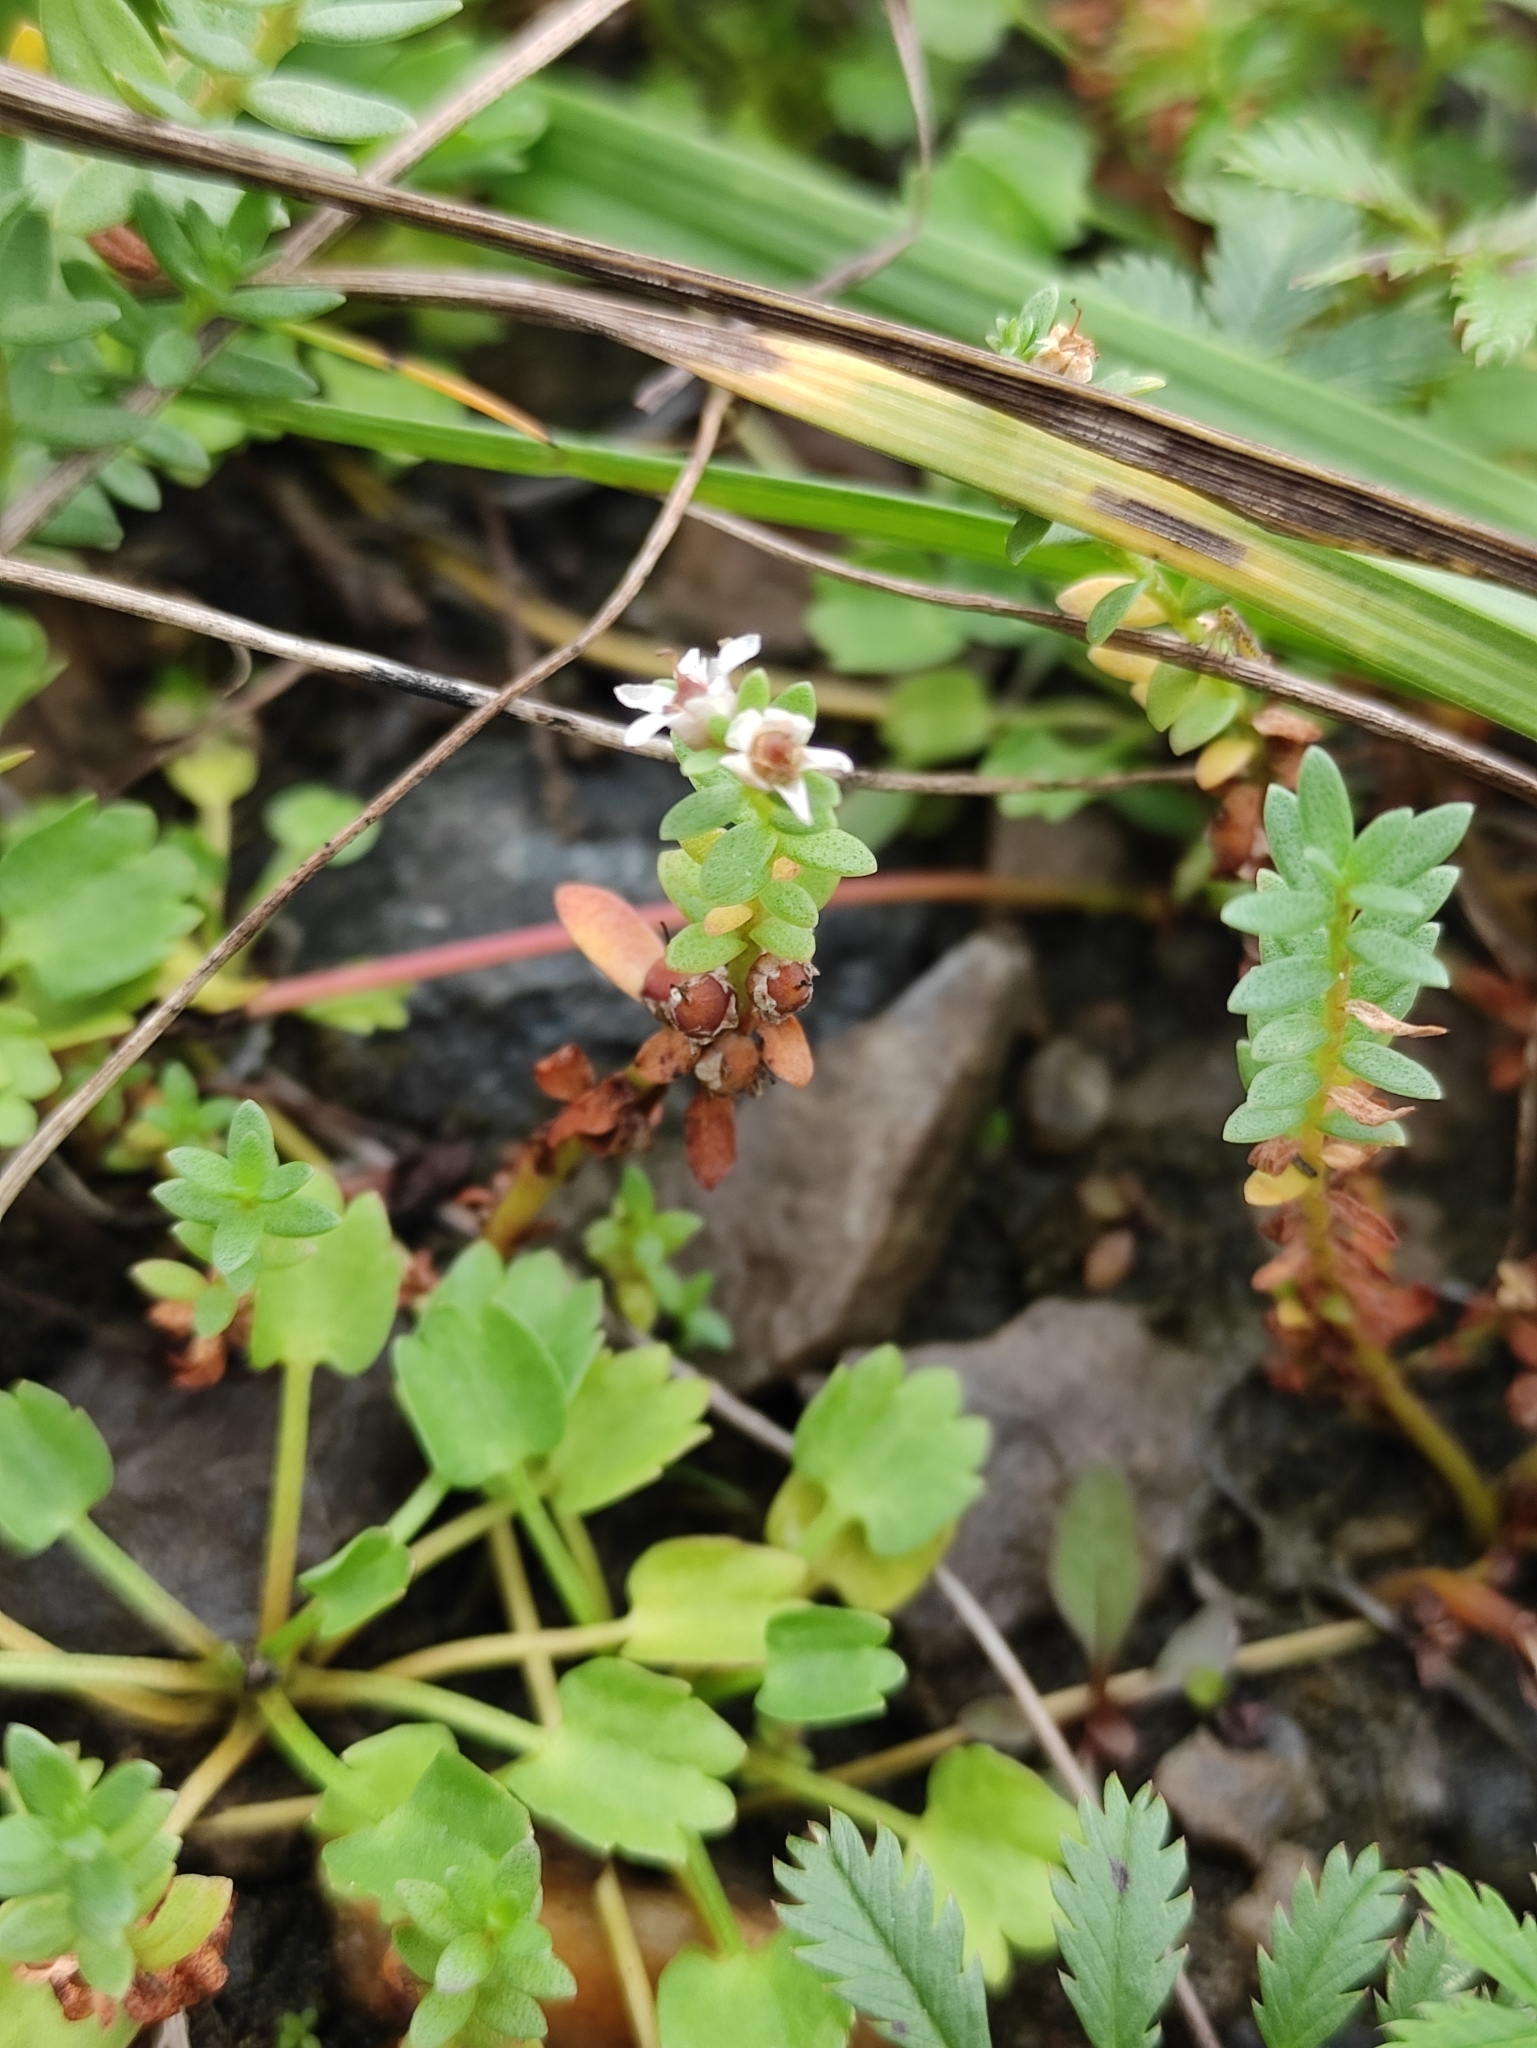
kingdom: Plantae
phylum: Tracheophyta
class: Magnoliopsida
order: Ericales
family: Primulaceae
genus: Lysimachia
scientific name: Lysimachia maritima
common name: Sea milkwort
